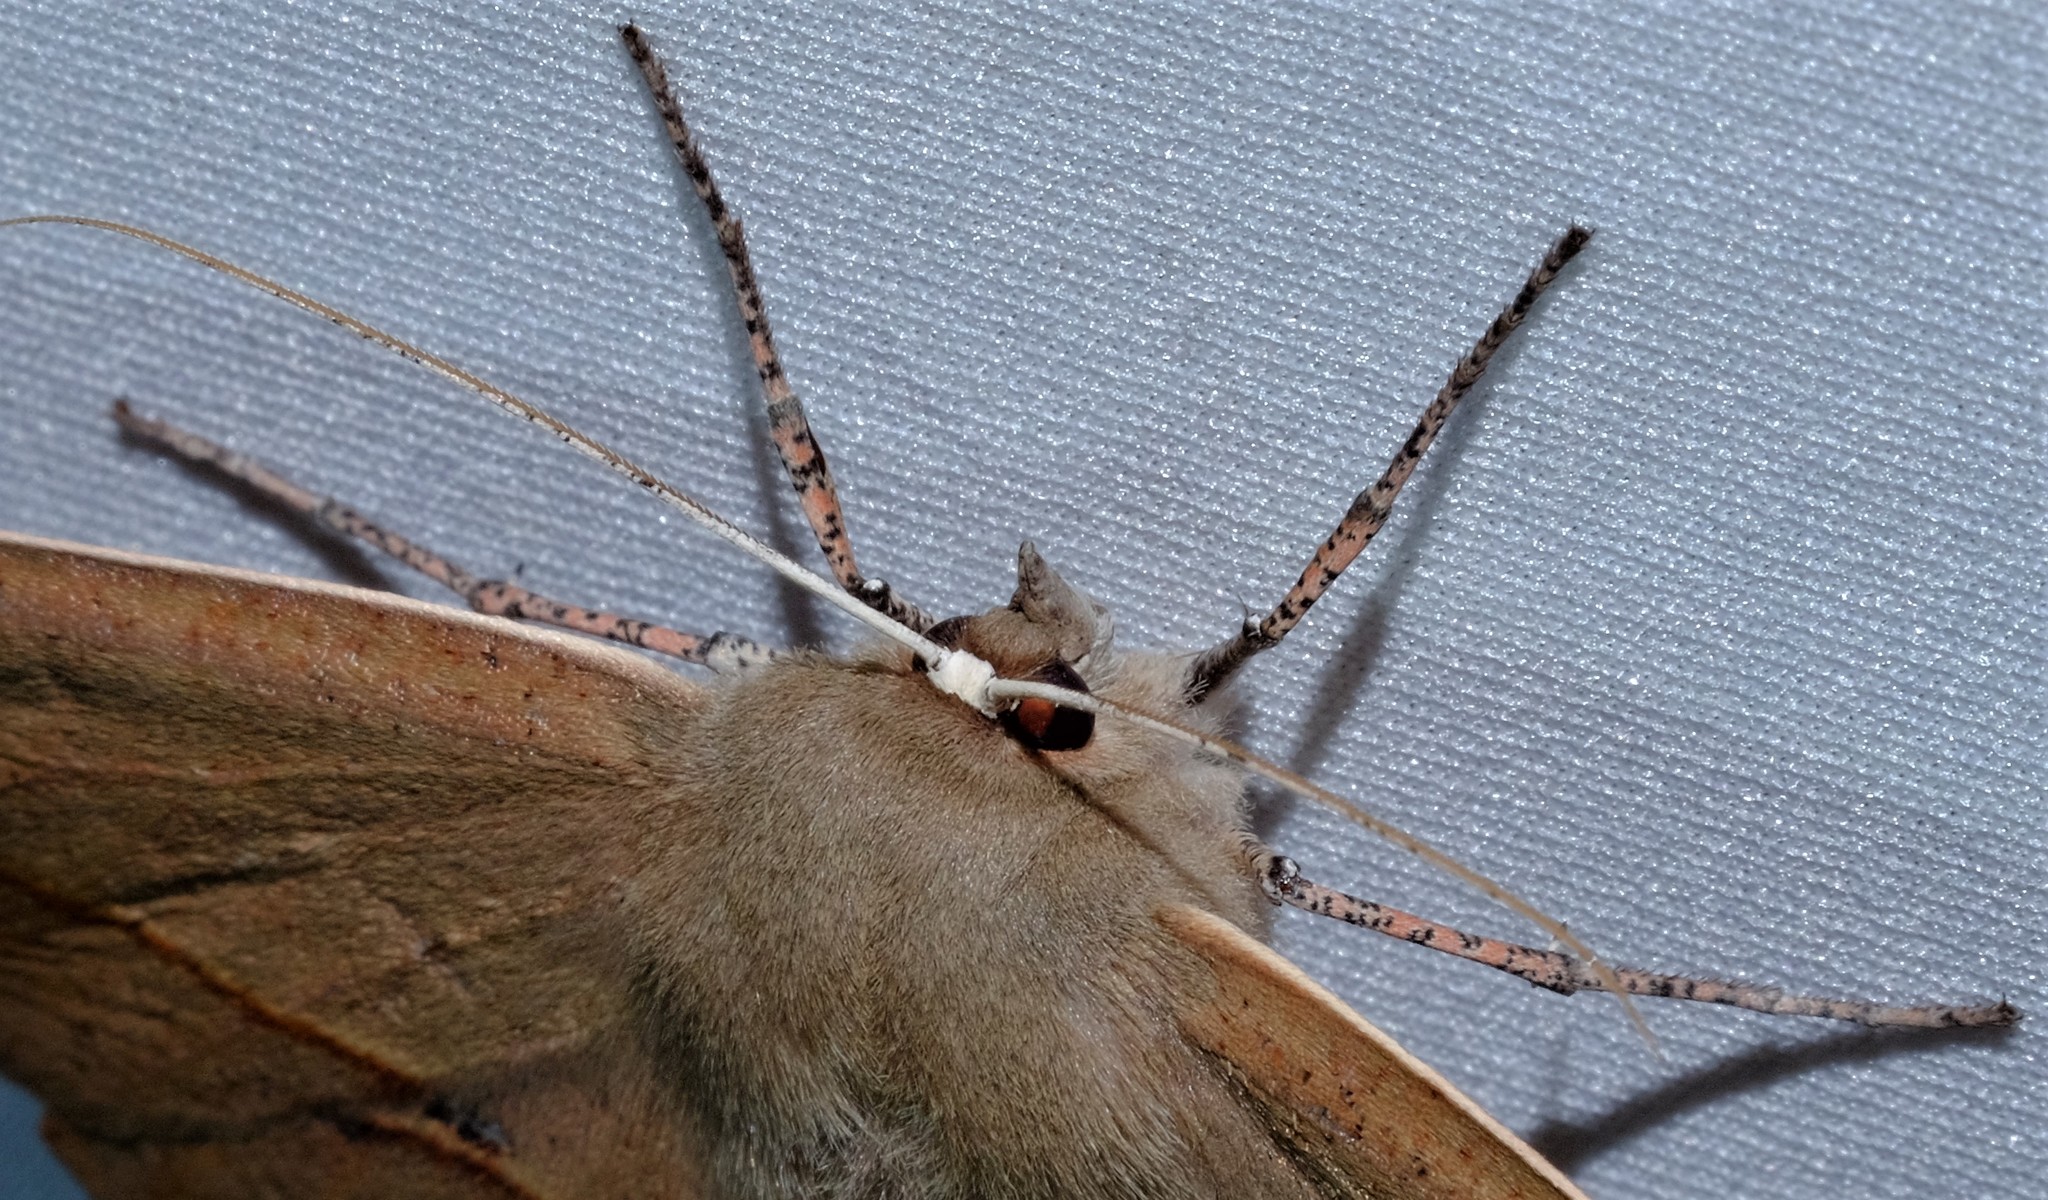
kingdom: Animalia
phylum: Arthropoda
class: Insecta
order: Lepidoptera
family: Geometridae
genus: Phallaria
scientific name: Phallaria ophiusaria
